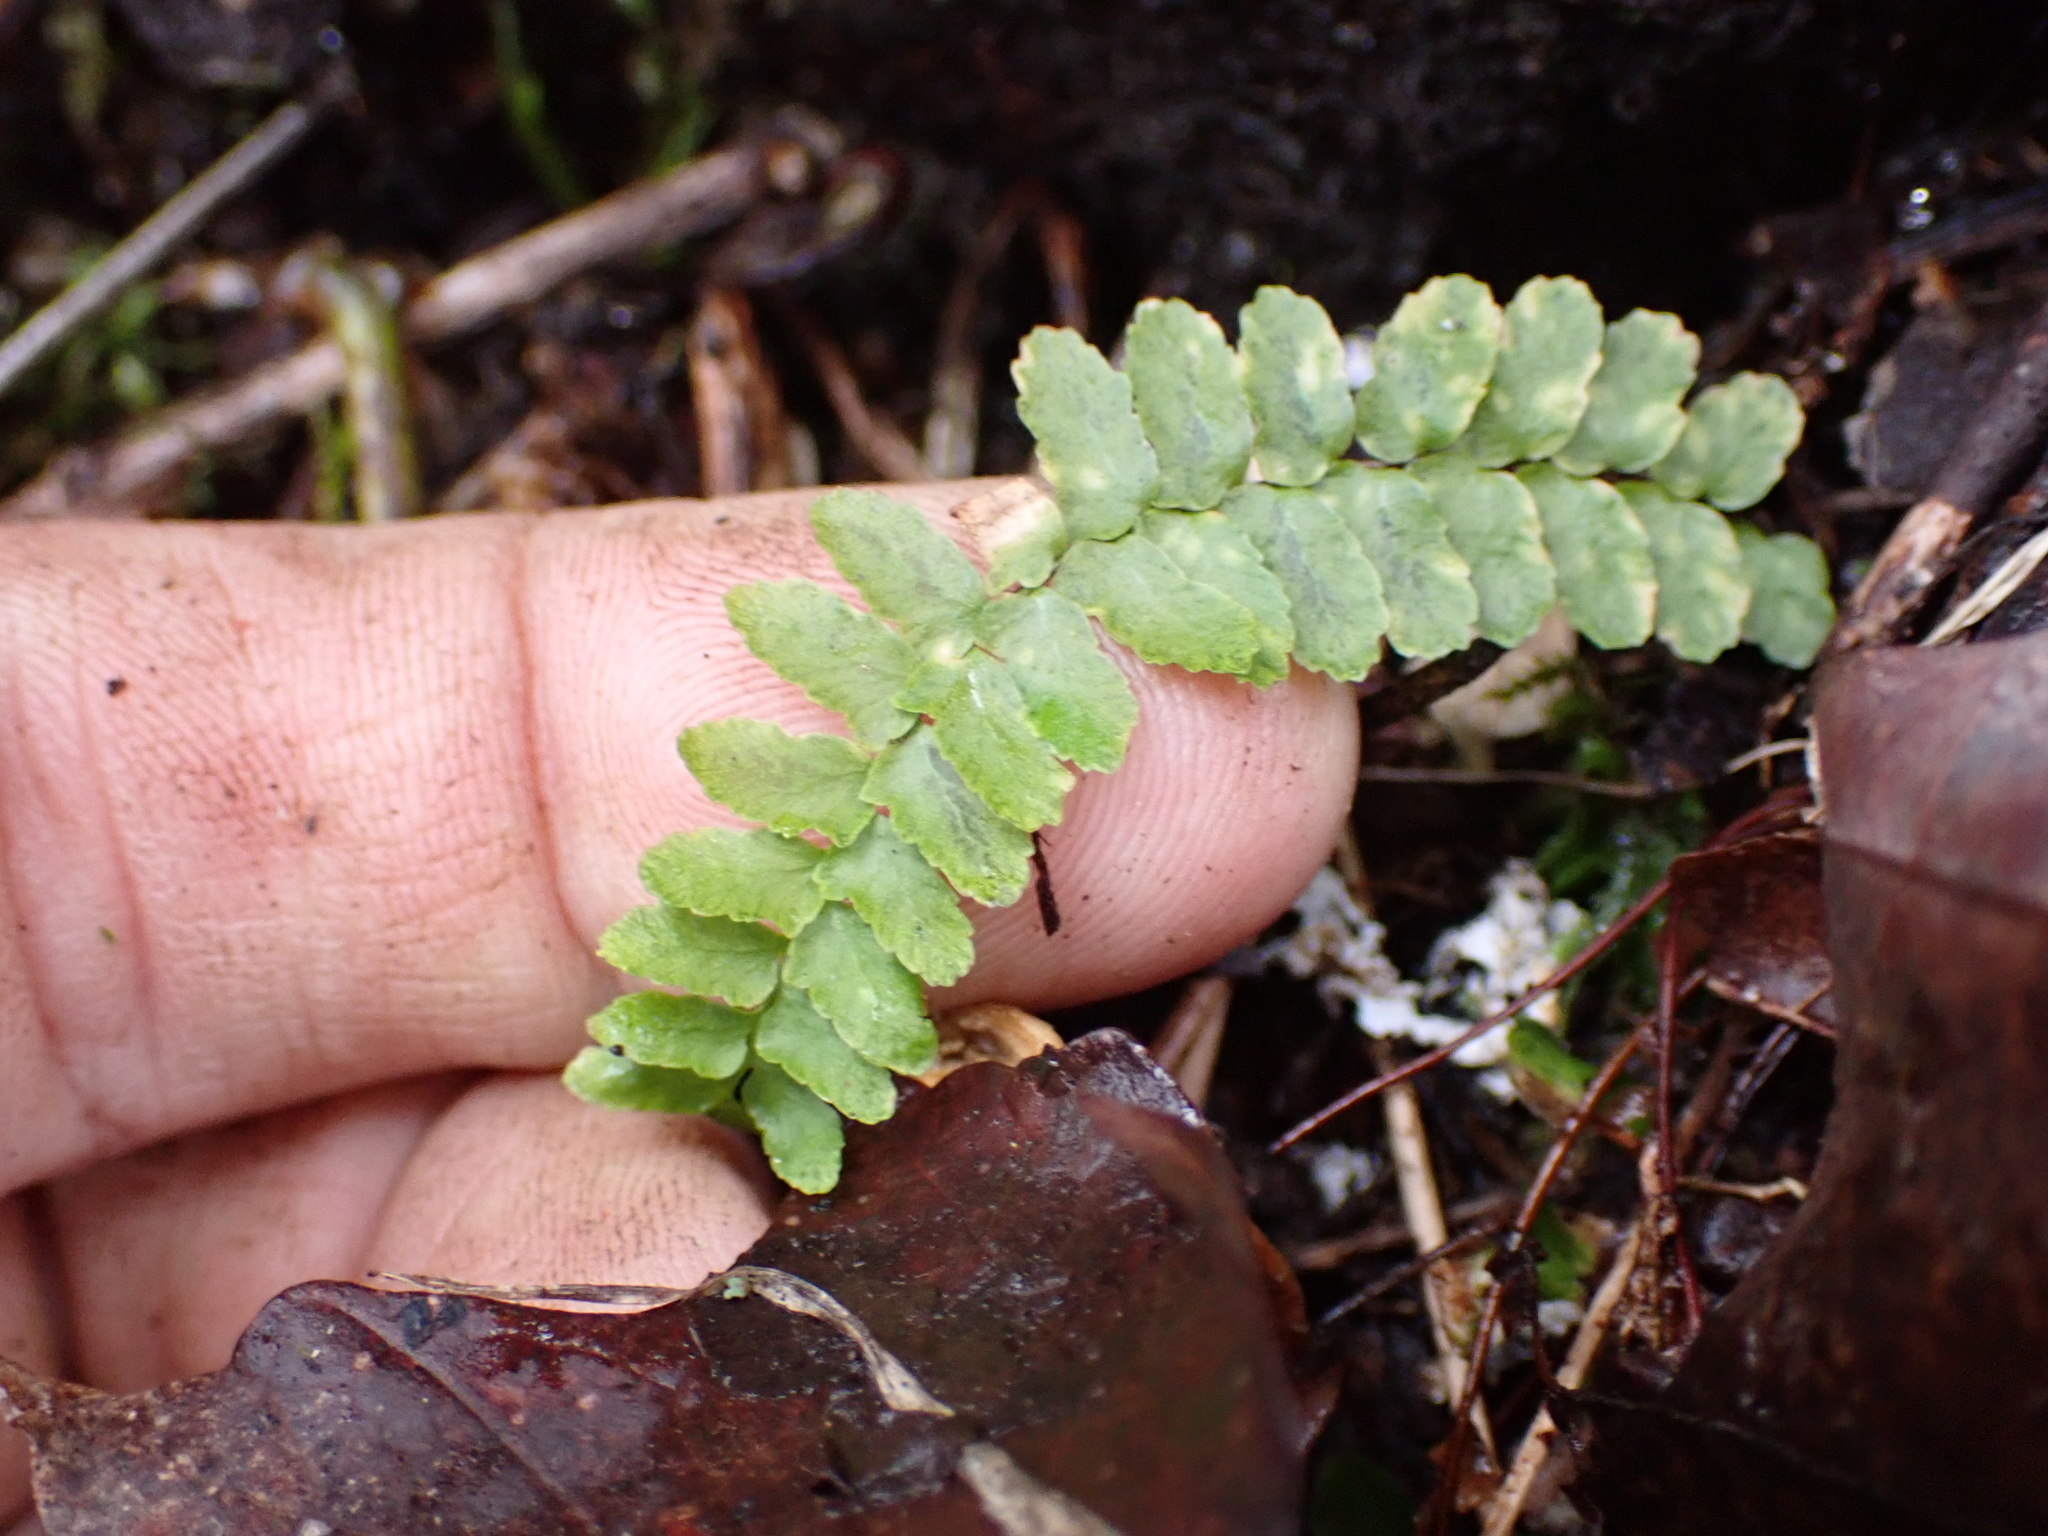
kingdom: Plantae
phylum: Tracheophyta
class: Polypodiopsida
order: Polypodiales
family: Aspleniaceae
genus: Asplenium
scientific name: Asplenium platyneuron
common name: Ebony spleenwort
